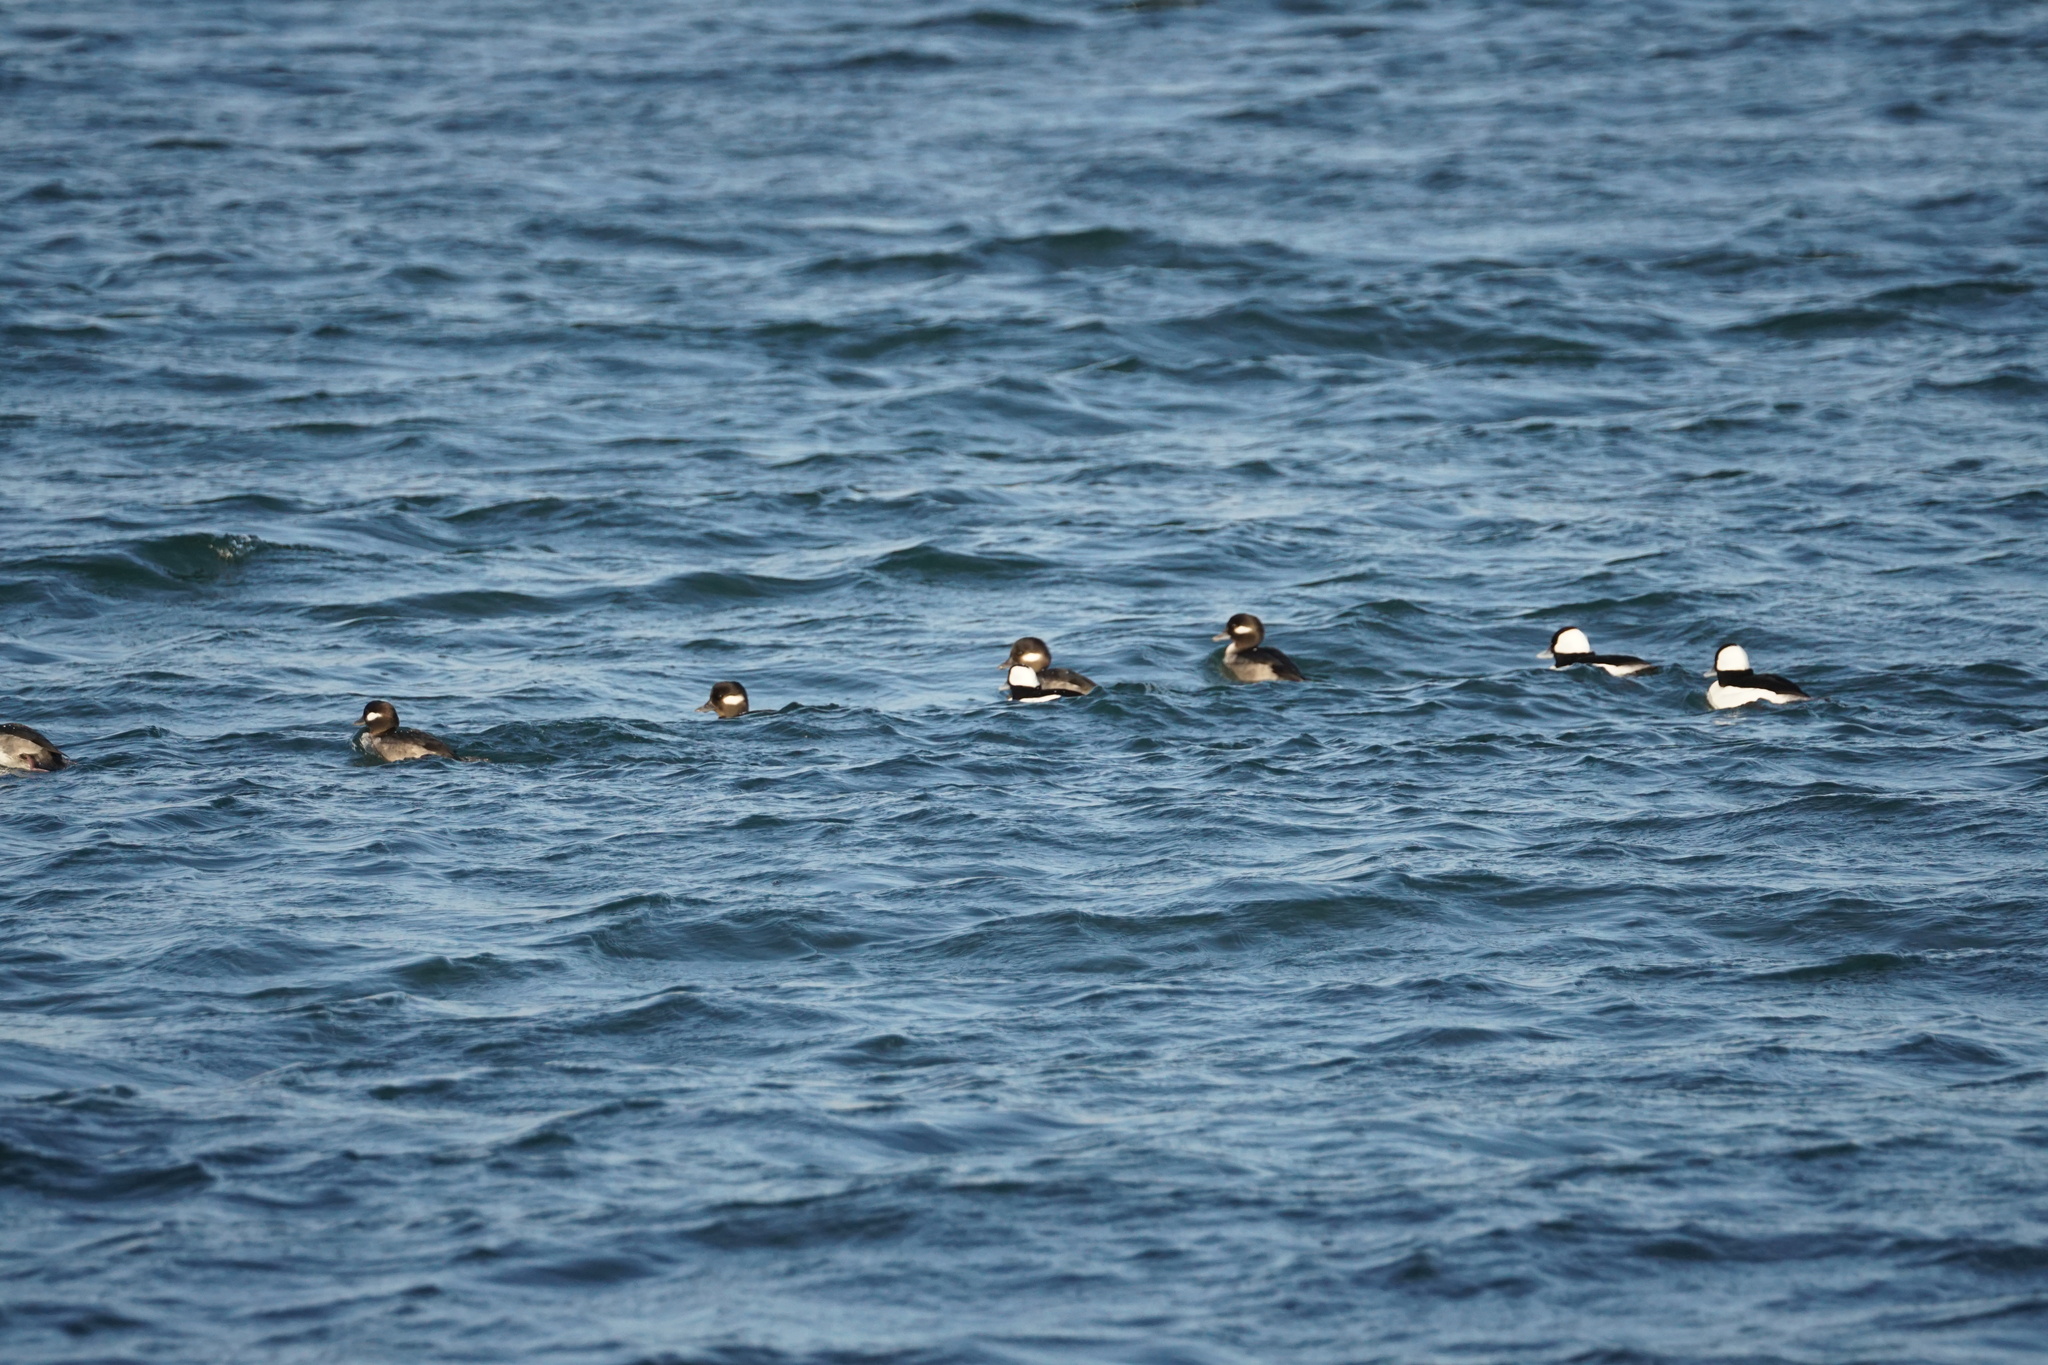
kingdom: Animalia
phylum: Chordata
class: Aves
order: Anseriformes
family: Anatidae
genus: Bucephala
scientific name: Bucephala albeola
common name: Bufflehead
